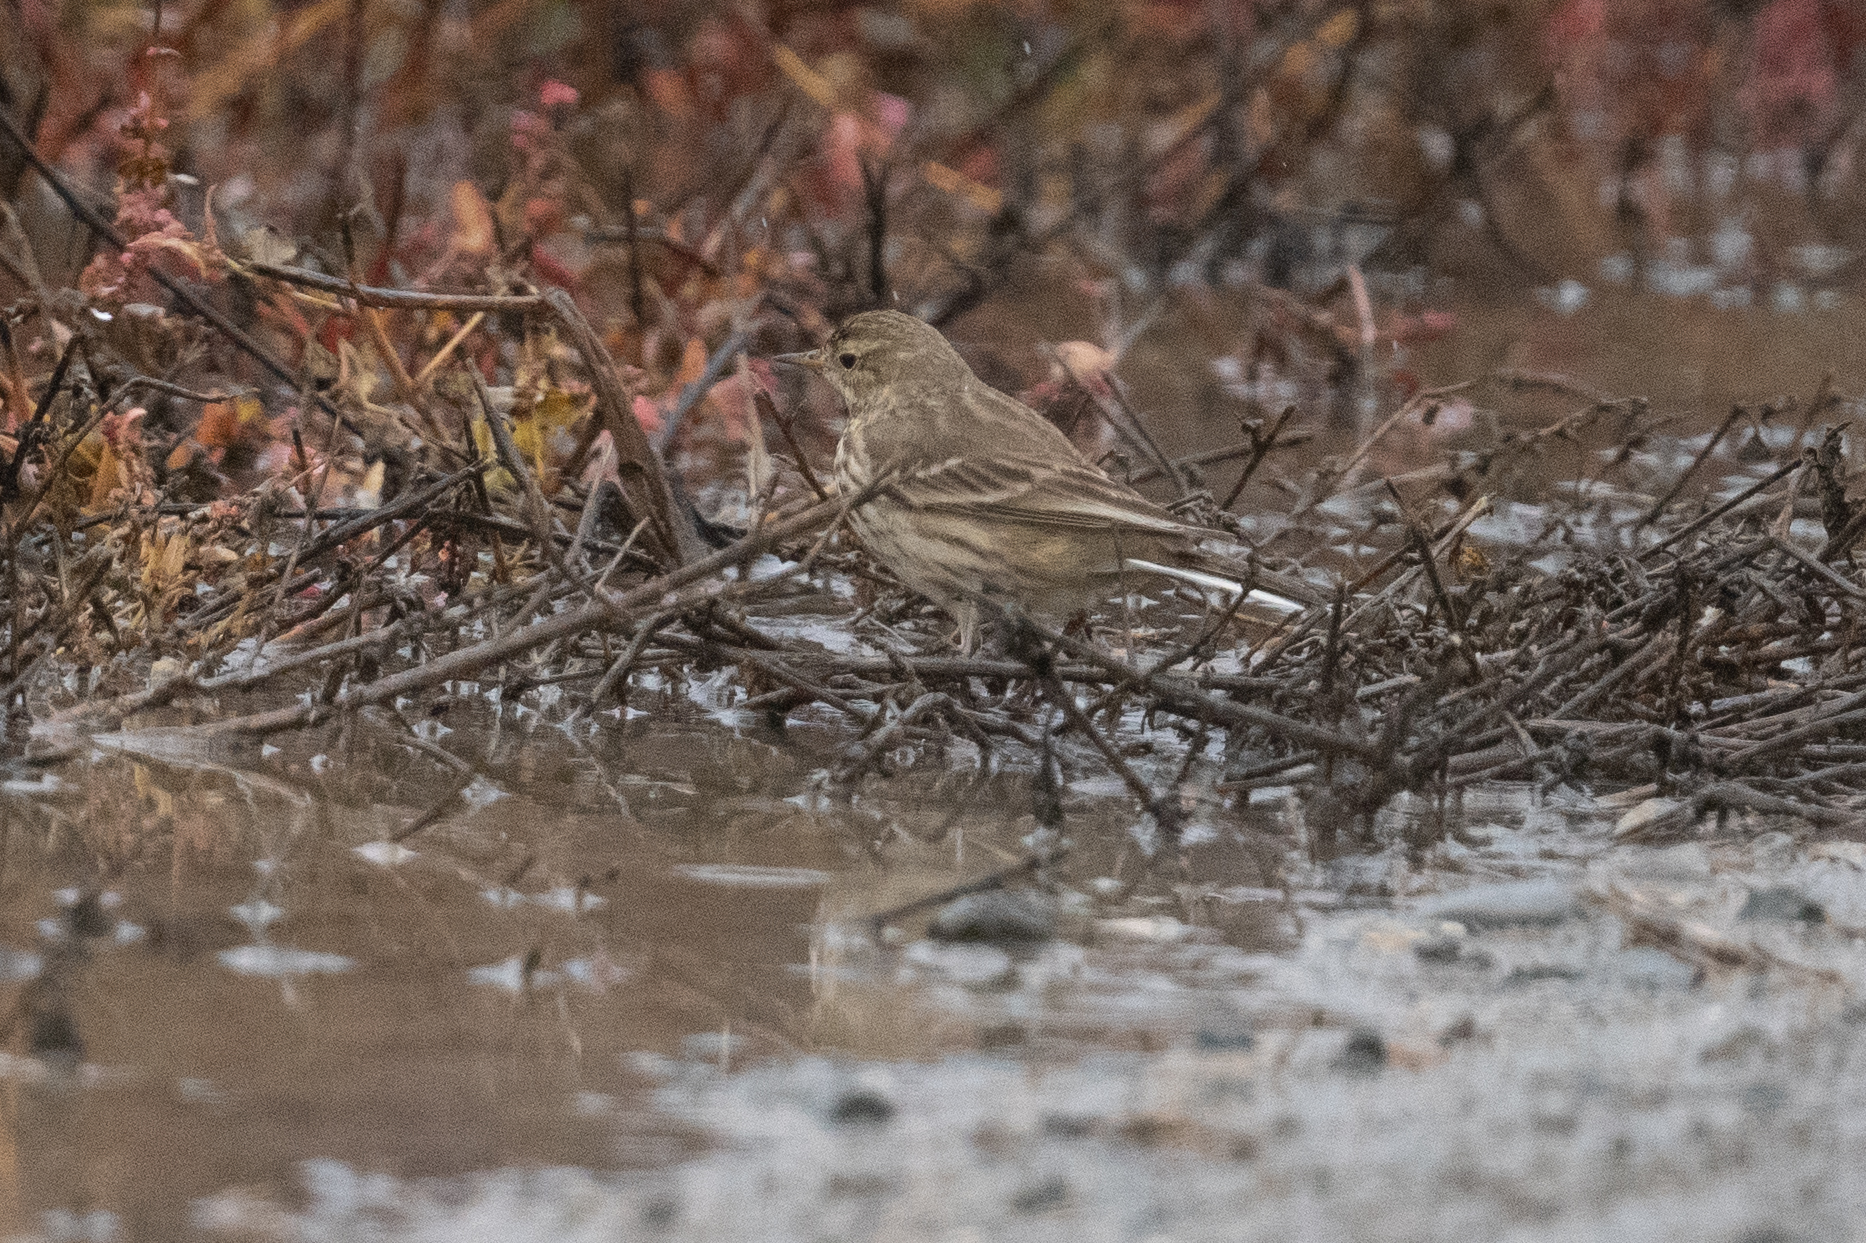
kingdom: Animalia
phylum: Chordata
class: Aves
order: Passeriformes
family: Motacillidae
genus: Anthus
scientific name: Anthus rubescens
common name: Buff-bellied pipit
